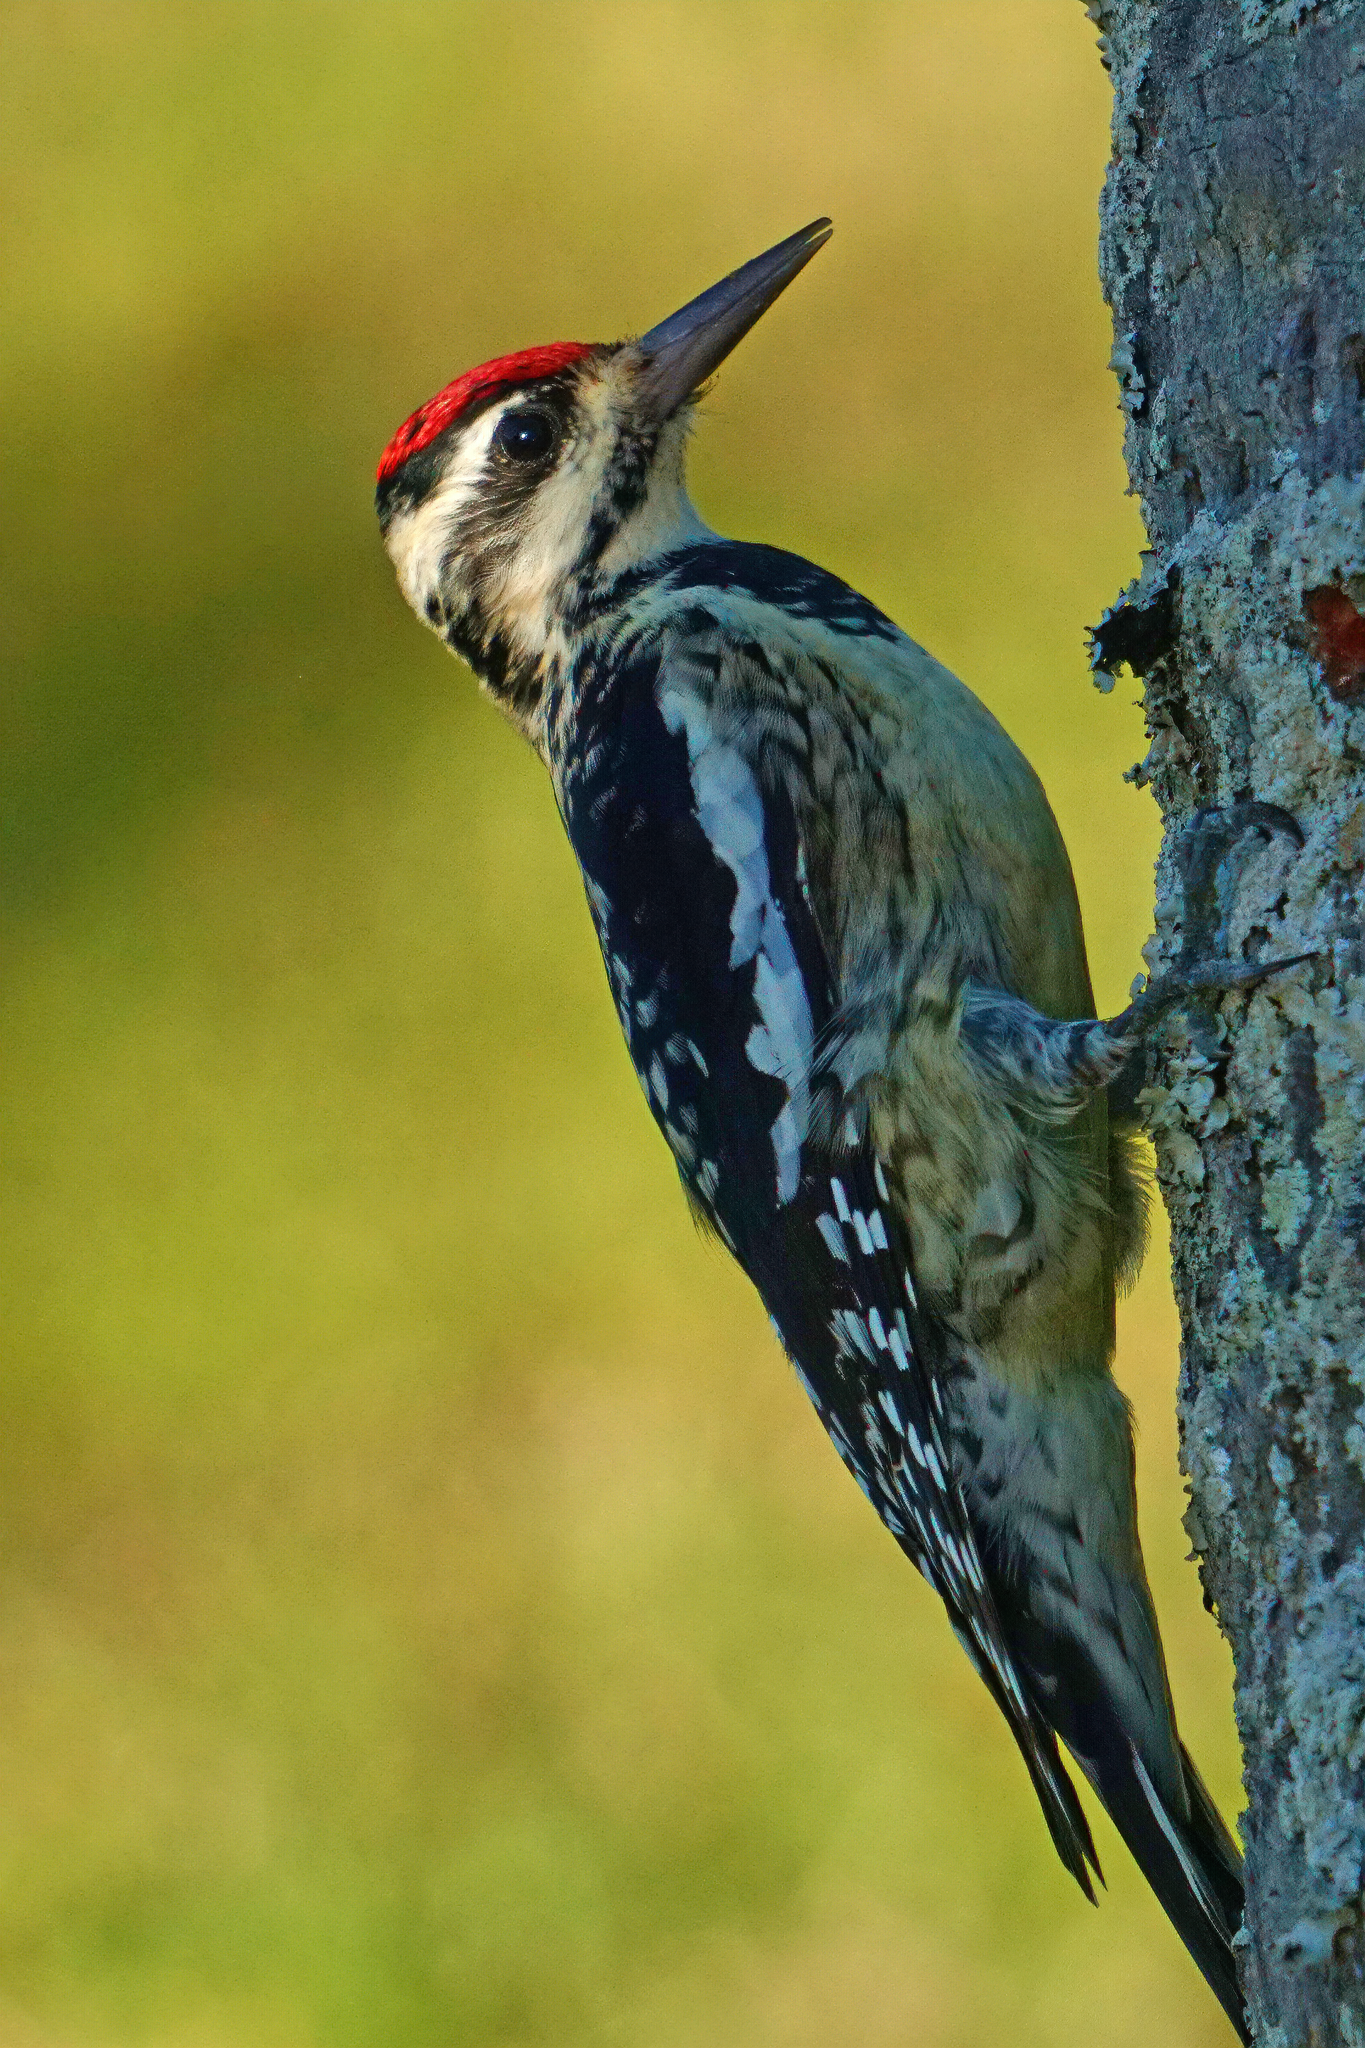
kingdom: Animalia
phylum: Chordata
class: Aves
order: Piciformes
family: Picidae
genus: Sphyrapicus
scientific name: Sphyrapicus varius
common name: Yellow-bellied sapsucker
